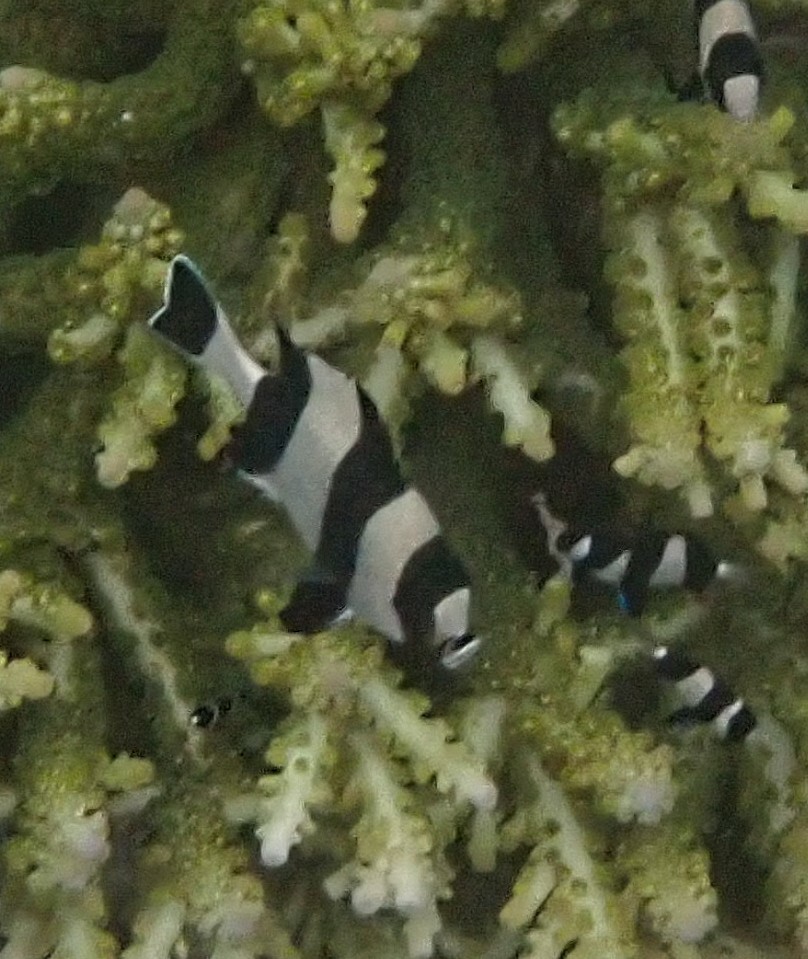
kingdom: Animalia
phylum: Chordata
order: Perciformes
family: Pomacentridae
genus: Dascyllus
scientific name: Dascyllus melanurus
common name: Black-tail dascyllus
